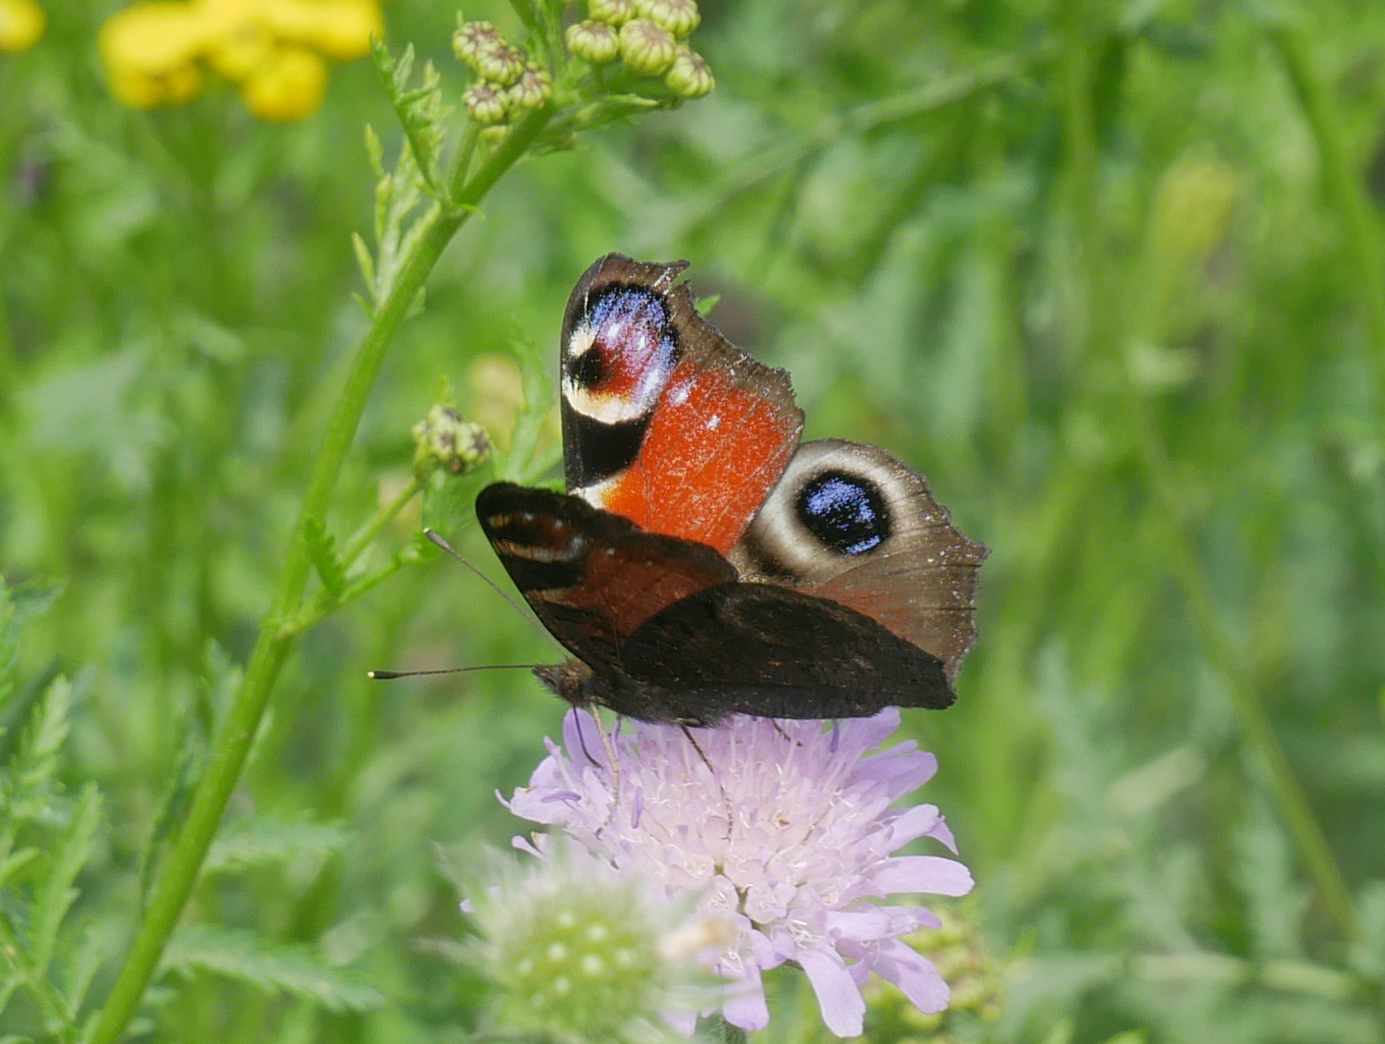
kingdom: Animalia
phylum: Arthropoda
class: Insecta
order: Lepidoptera
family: Nymphalidae
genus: Aglais
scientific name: Aglais io
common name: Peacock
